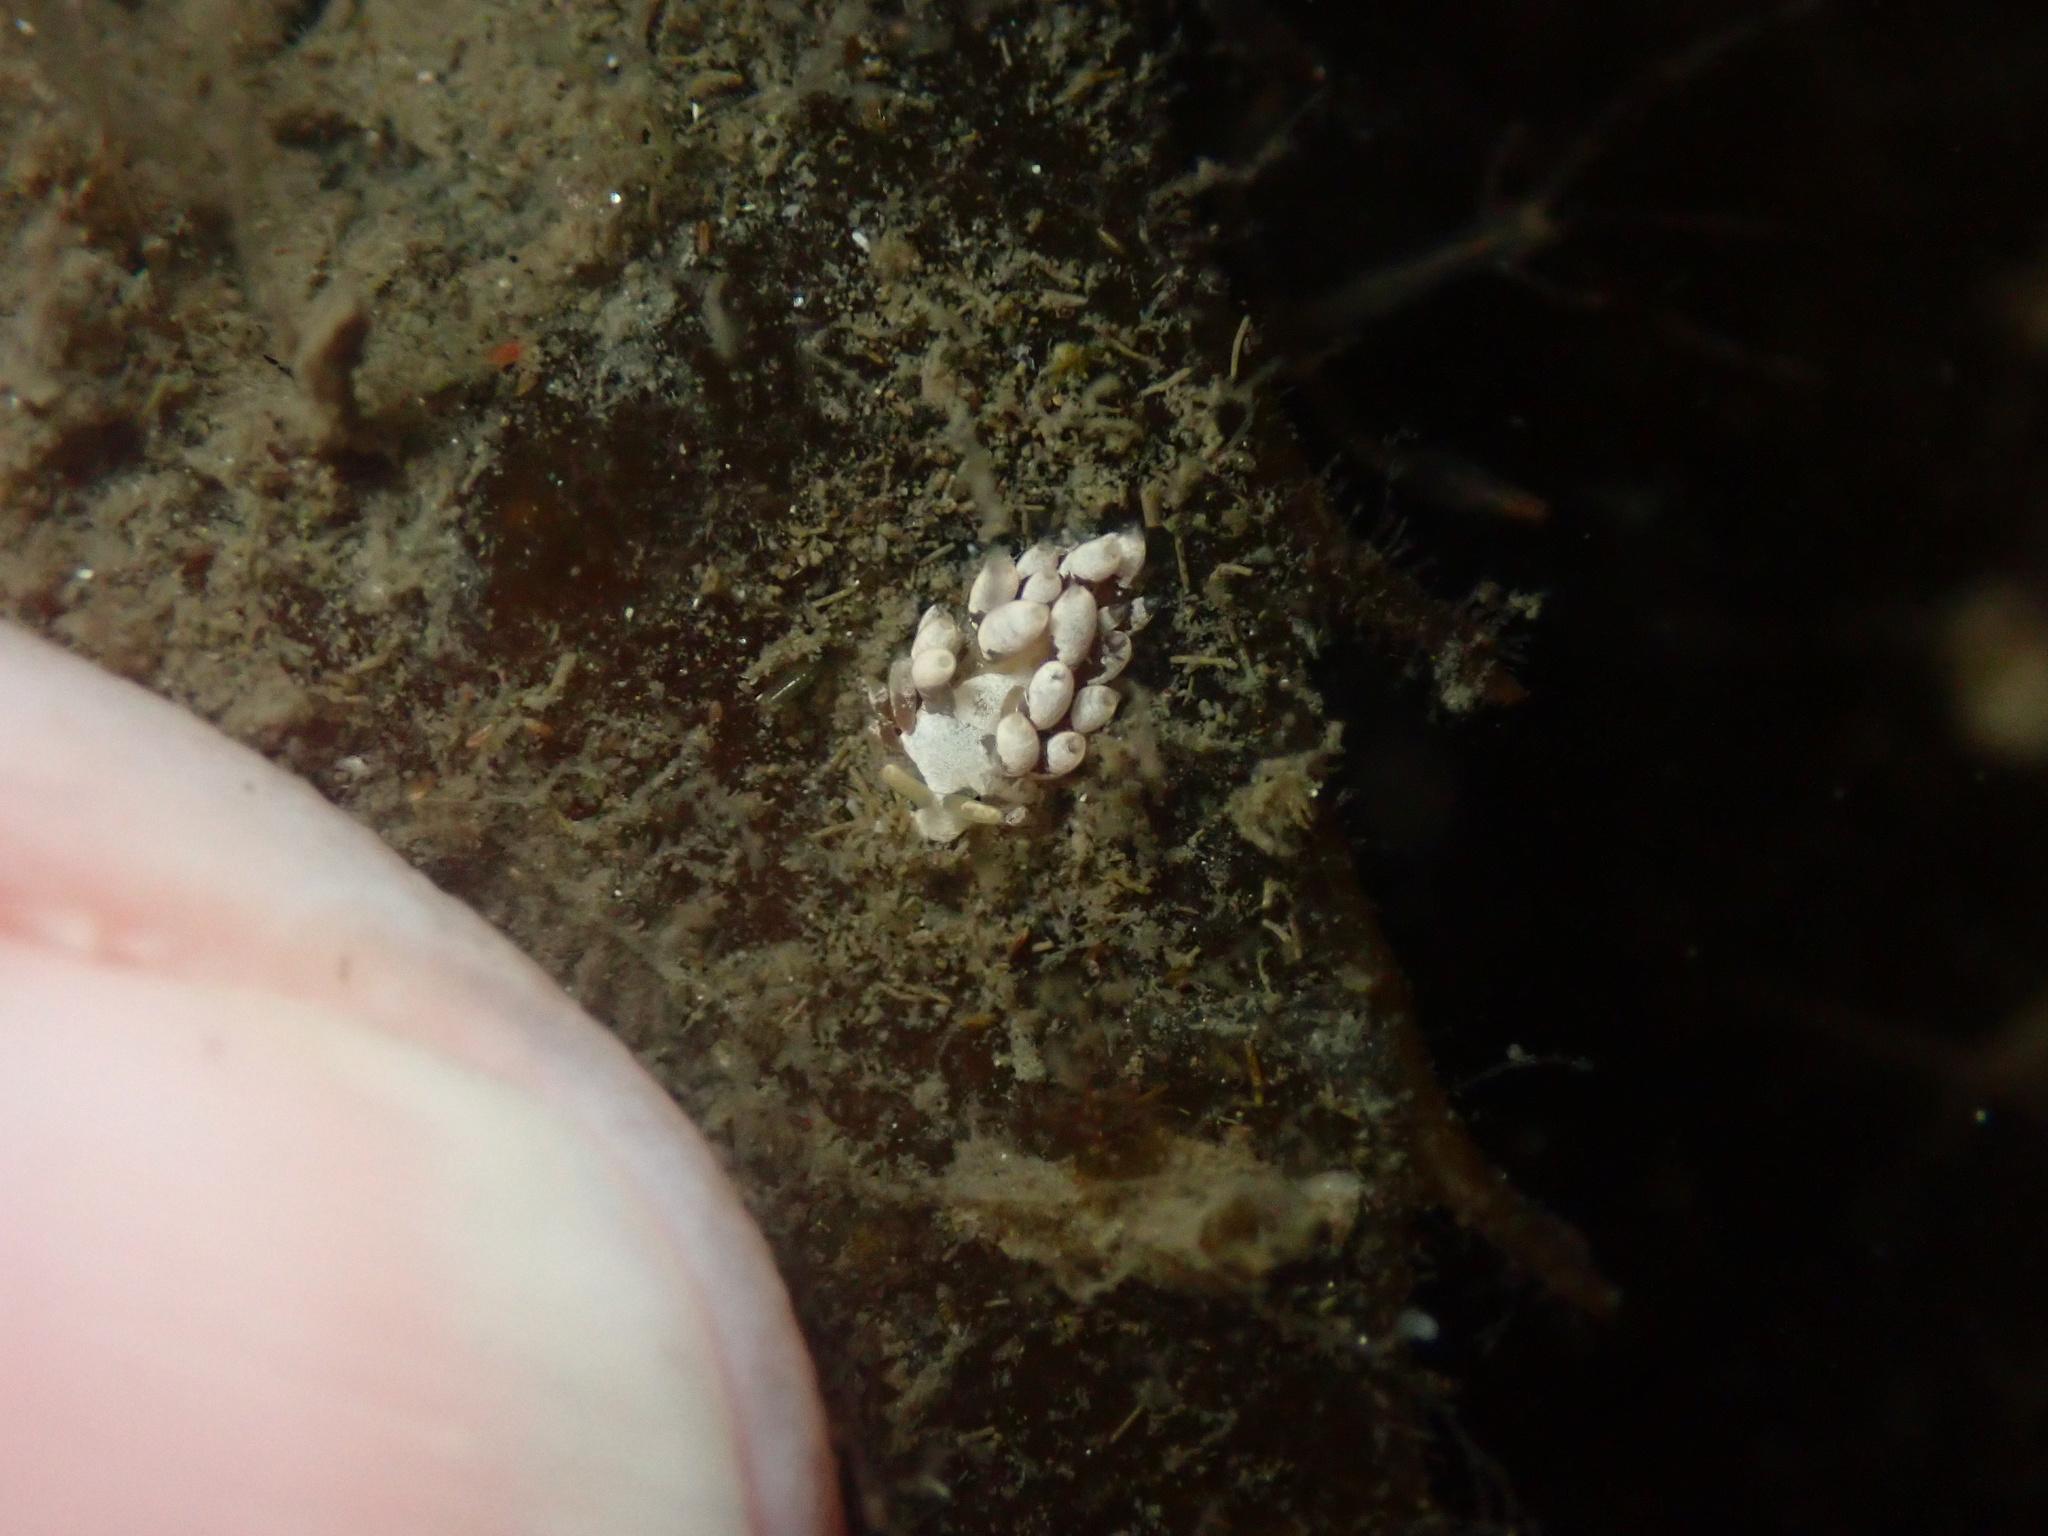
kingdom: Animalia
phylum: Mollusca
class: Gastropoda
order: Nudibranchia
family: Trinchesiidae
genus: Trinchesia
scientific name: Trinchesia albocrusta
